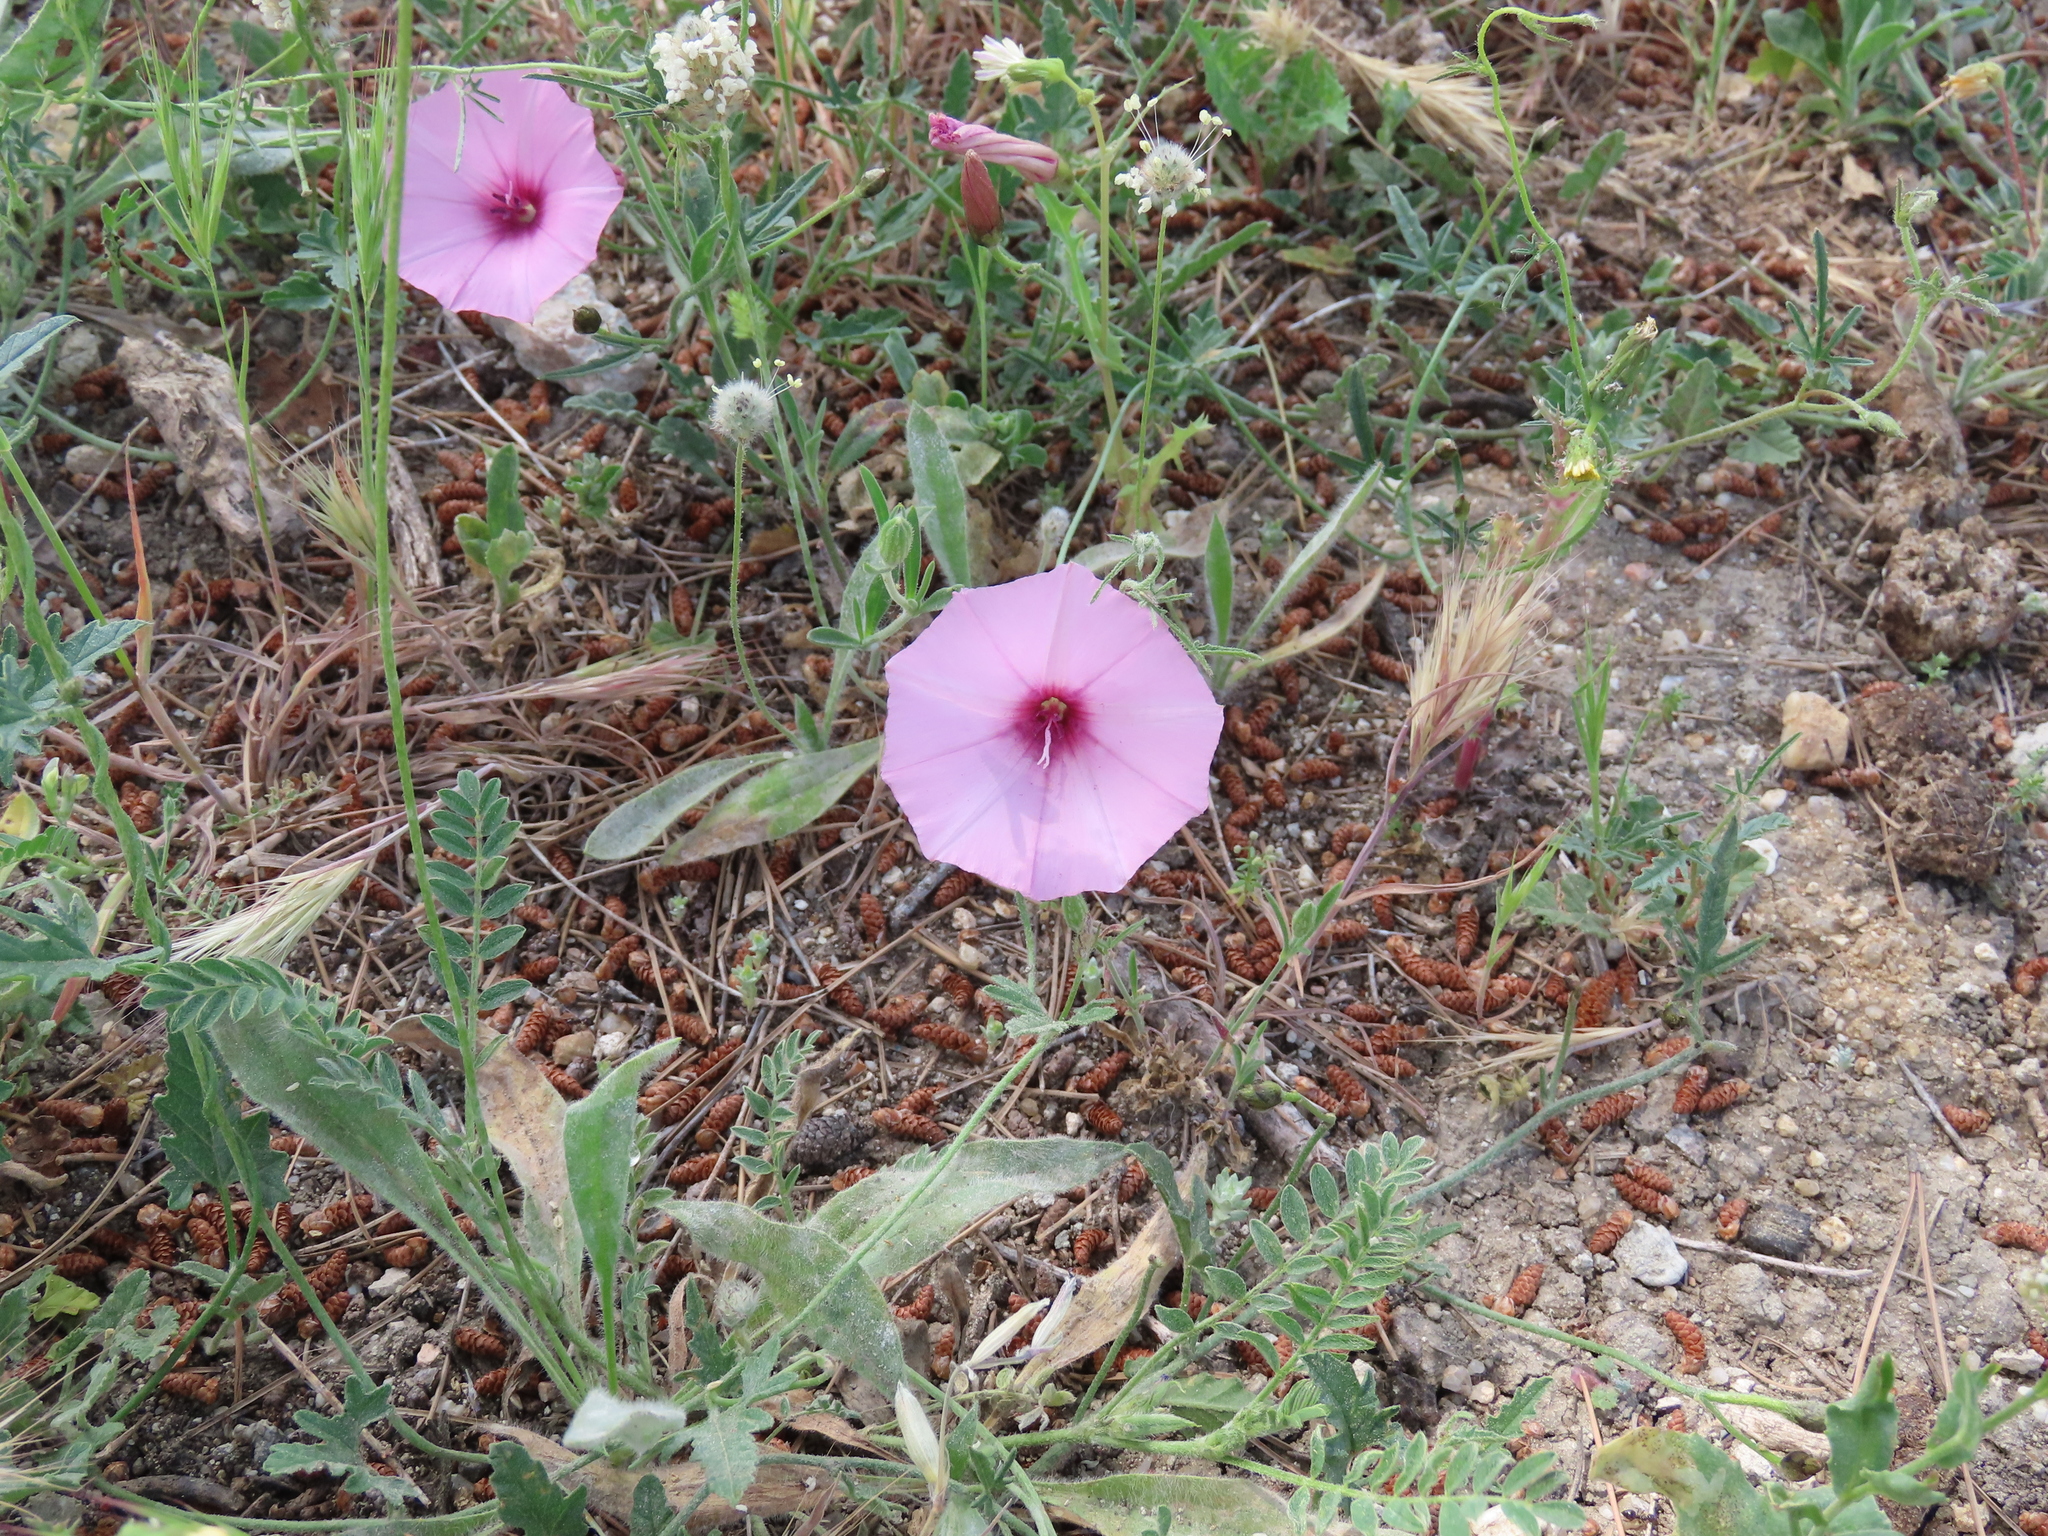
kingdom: Plantae
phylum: Tracheophyta
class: Magnoliopsida
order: Solanales
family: Convolvulaceae
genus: Convolvulus
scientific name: Convolvulus althaeoides
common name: Mallow bindweed
